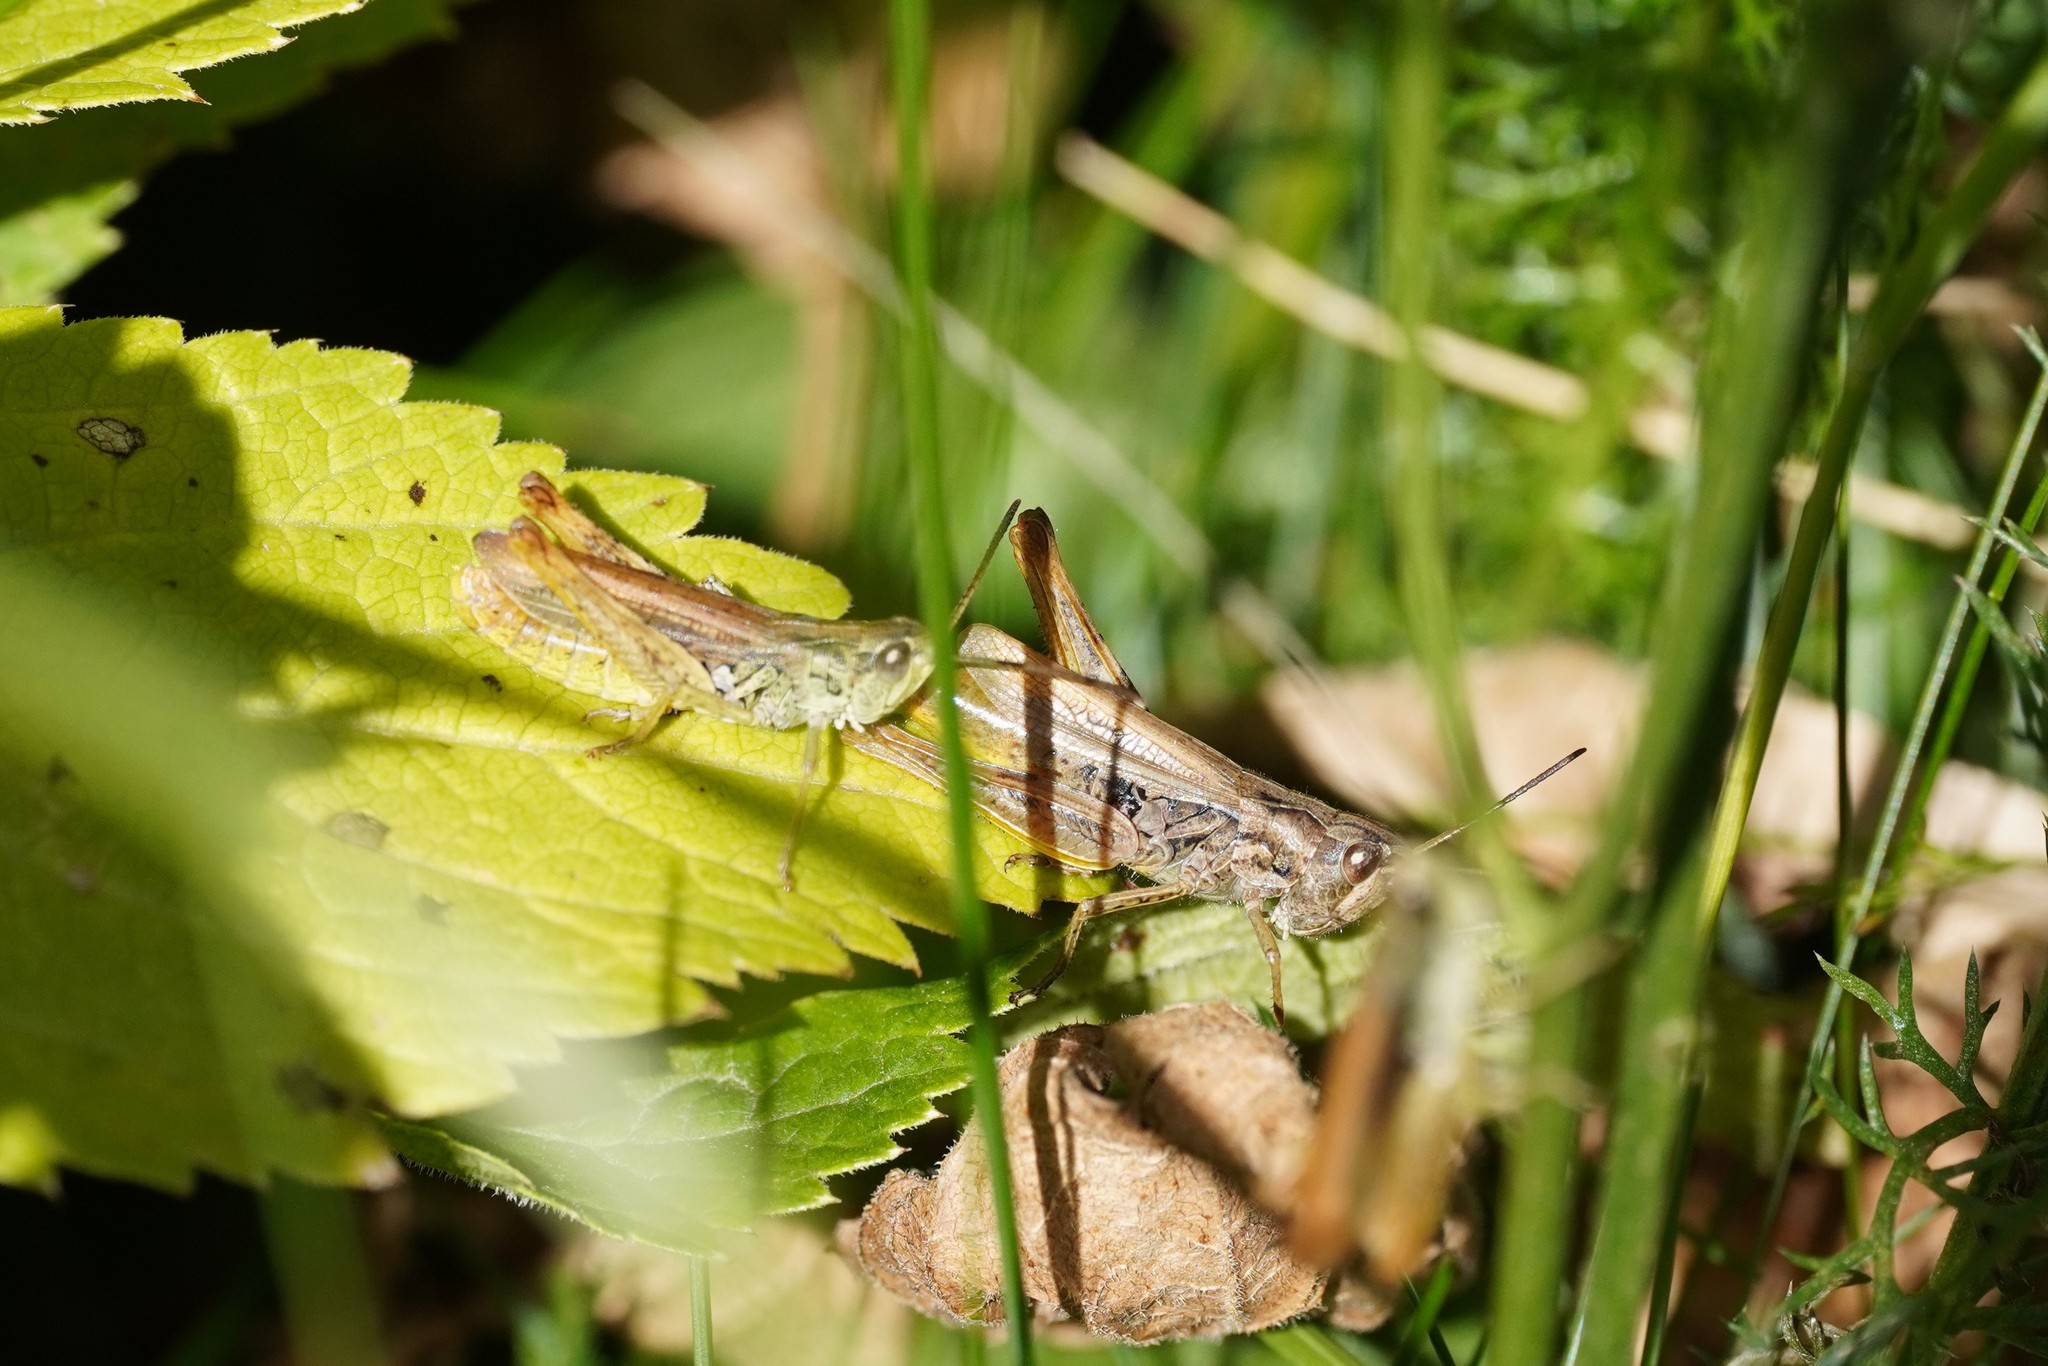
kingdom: Animalia
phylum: Arthropoda
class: Insecta
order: Orthoptera
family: Acrididae
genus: Chorthippus
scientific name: Chorthippus apricarius
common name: Upland field grasshopper
